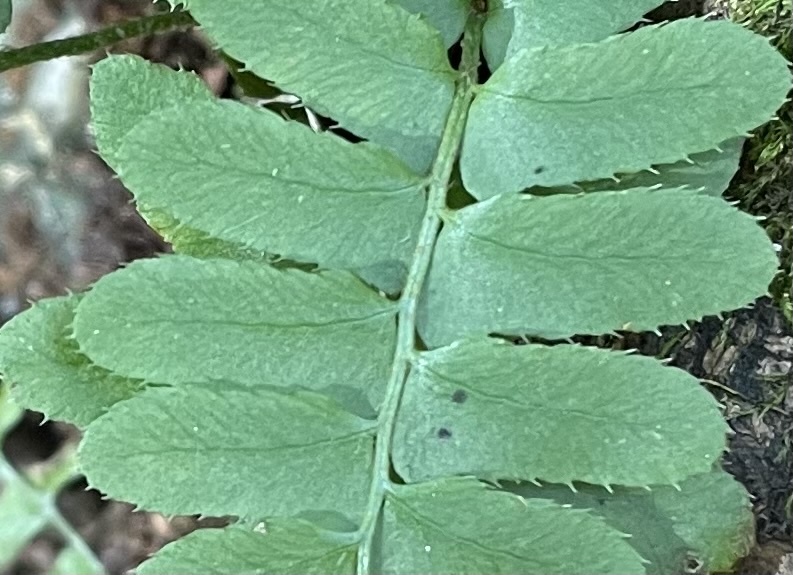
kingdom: Plantae
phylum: Tracheophyta
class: Polypodiopsida
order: Polypodiales
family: Dryopteridaceae
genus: Polystichum
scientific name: Polystichum acrostichoides
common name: Christmas fern
